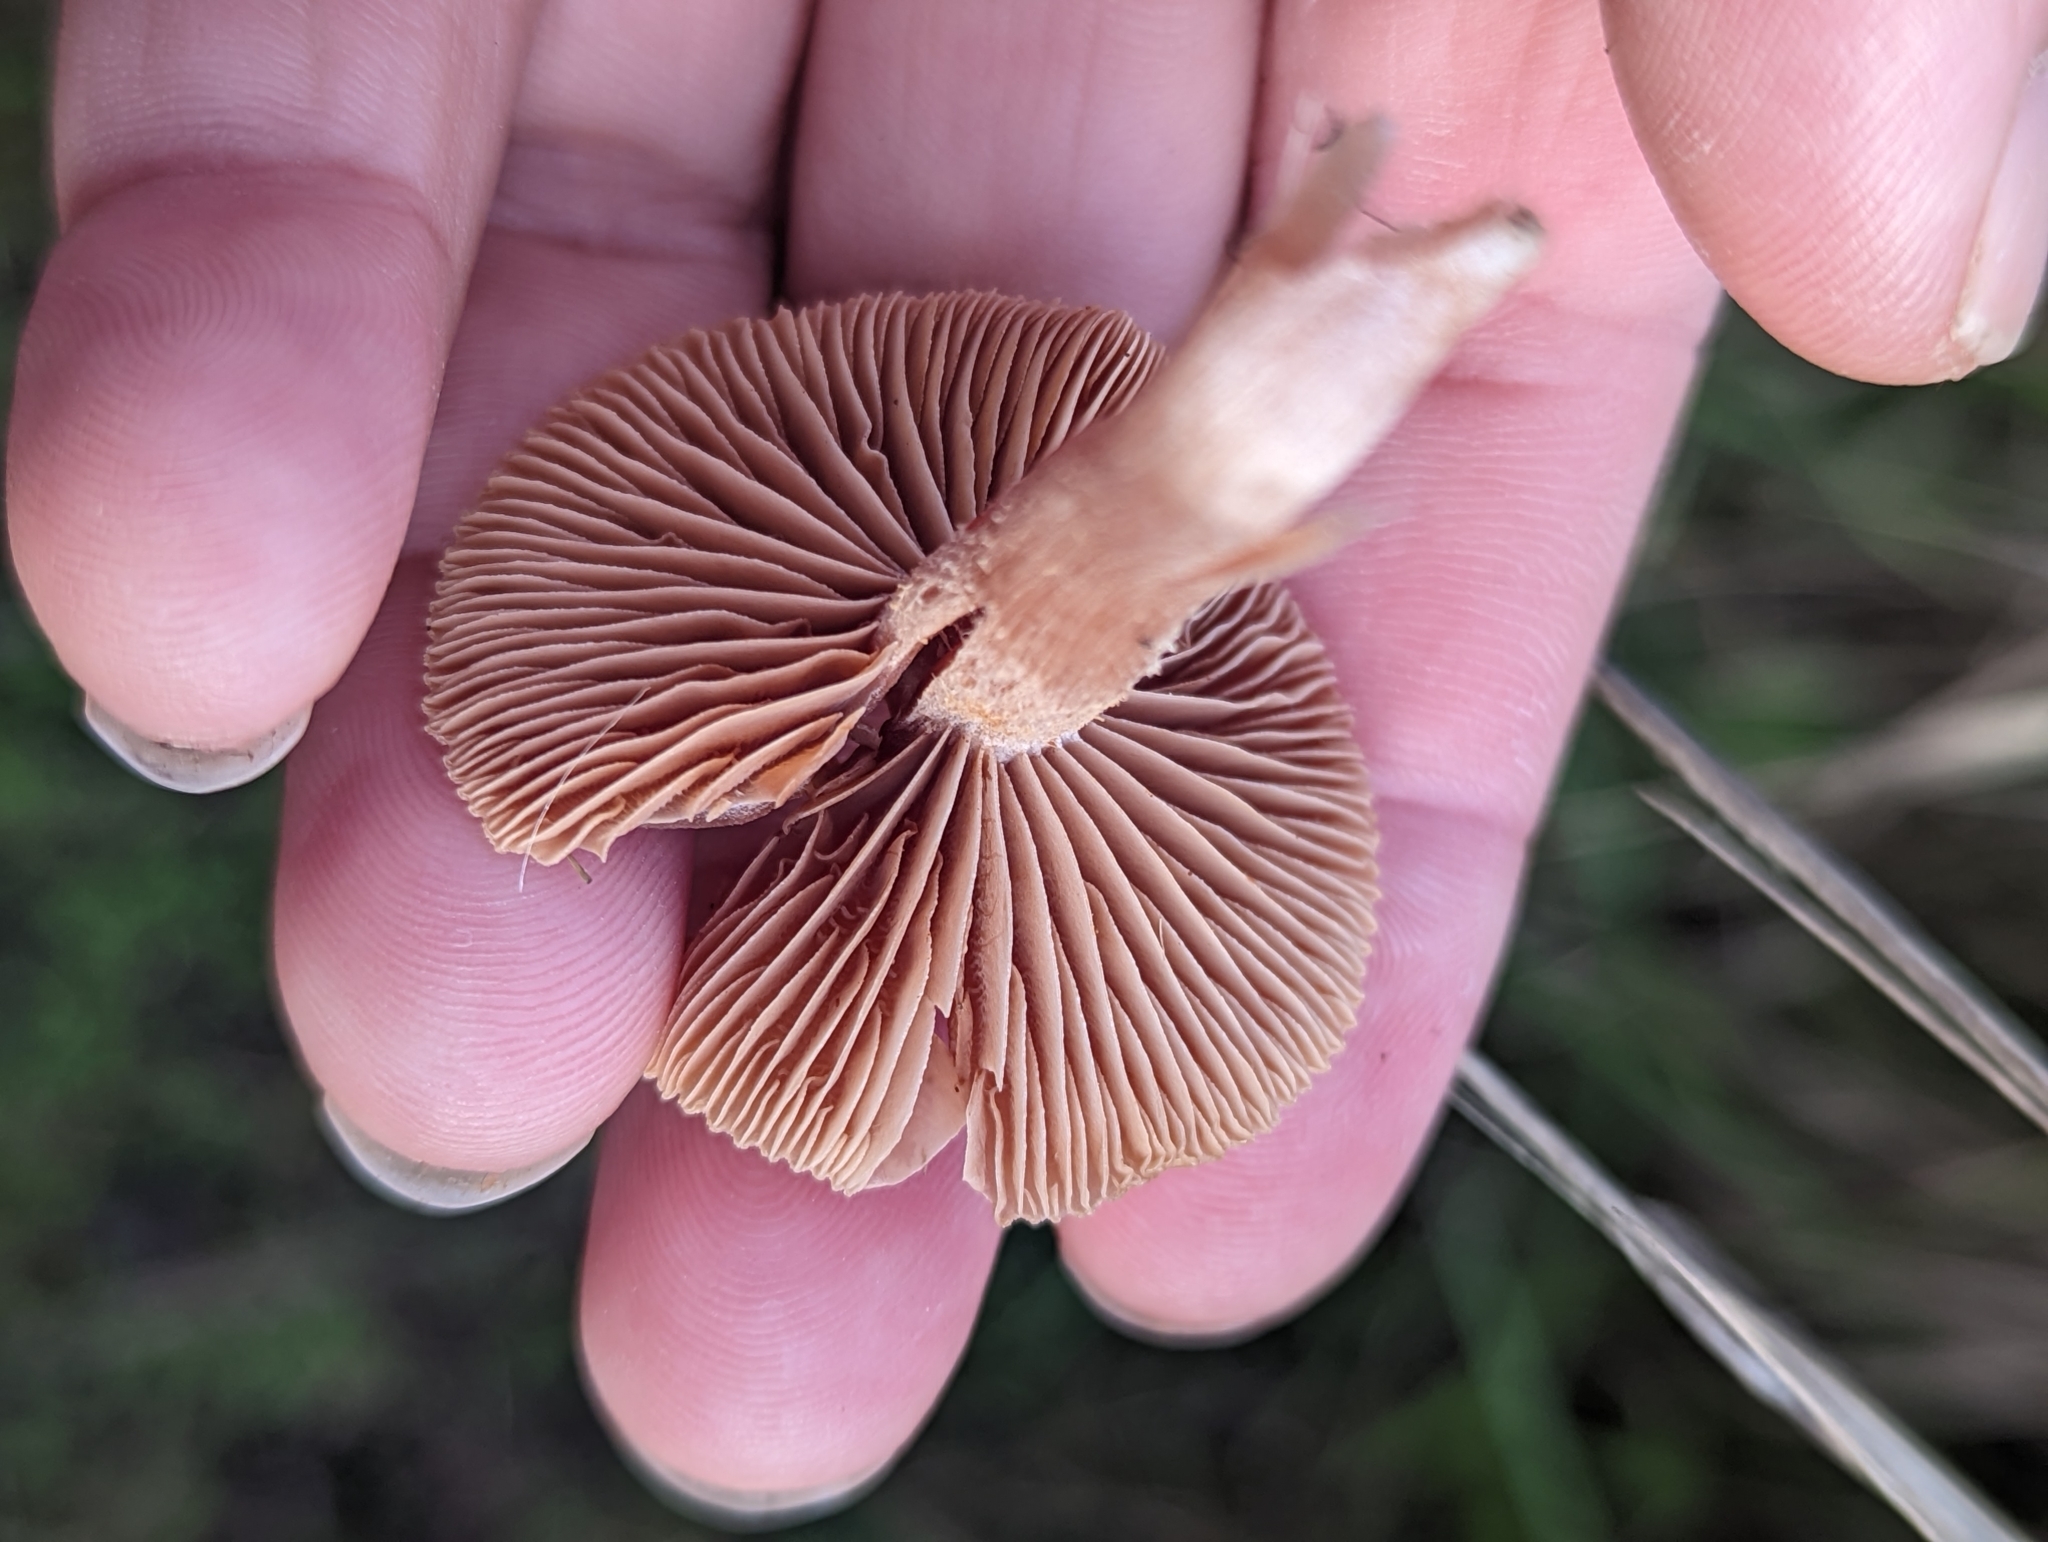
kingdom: Fungi
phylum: Basidiomycota
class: Agaricomycetes
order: Agaricales
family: Tubariaceae
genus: Tubaria
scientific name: Tubaria furfuracea
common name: Scurfy twiglet
